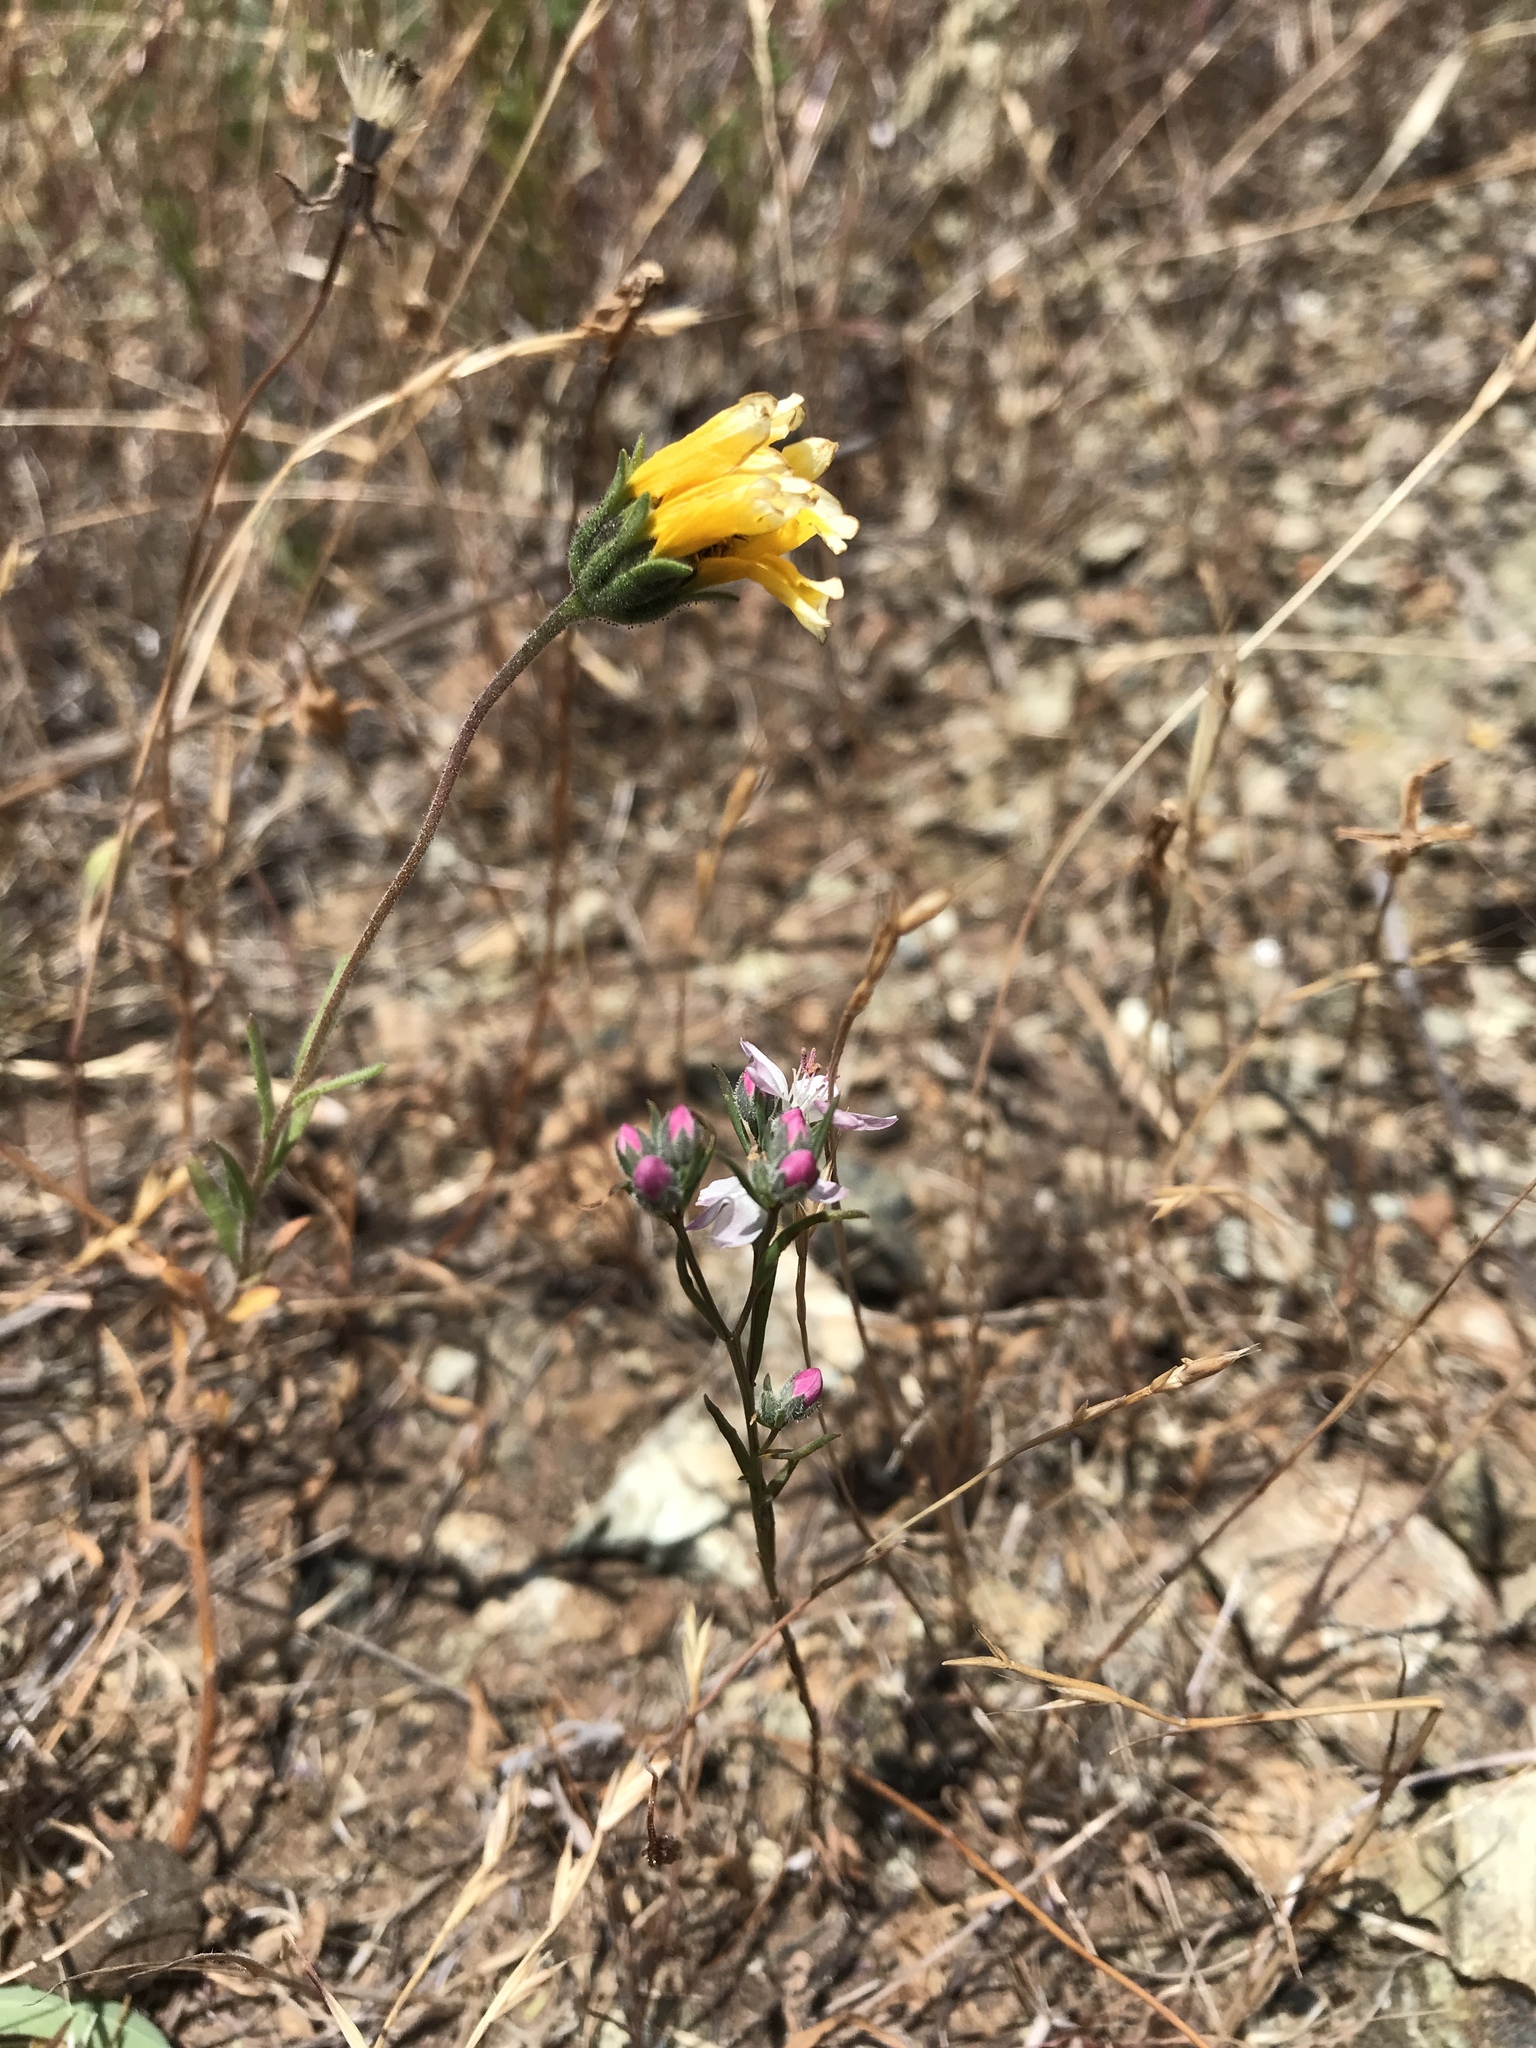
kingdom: Plantae
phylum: Tracheophyta
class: Magnoliopsida
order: Malpighiales
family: Linaceae
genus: Hesperolinon
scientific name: Hesperolinon congestum
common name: Marin dwarf-flax
